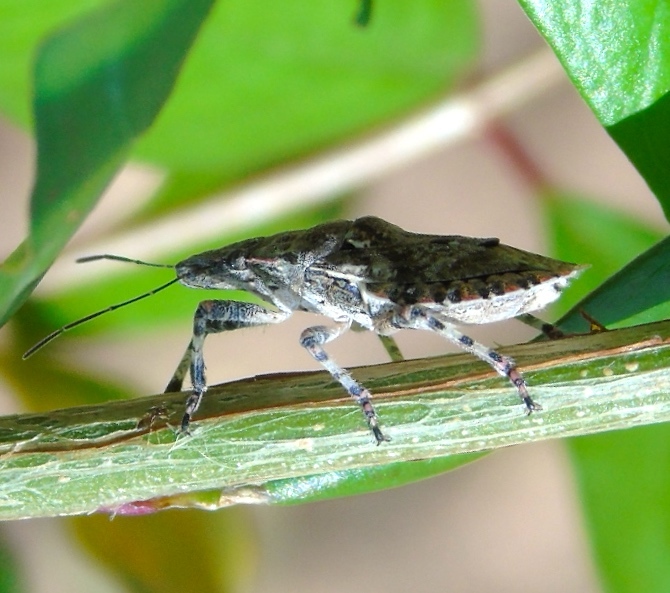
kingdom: Animalia
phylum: Arthropoda
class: Insecta
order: Hemiptera
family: Pentatomidae
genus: Brochymena
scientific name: Brochymena
